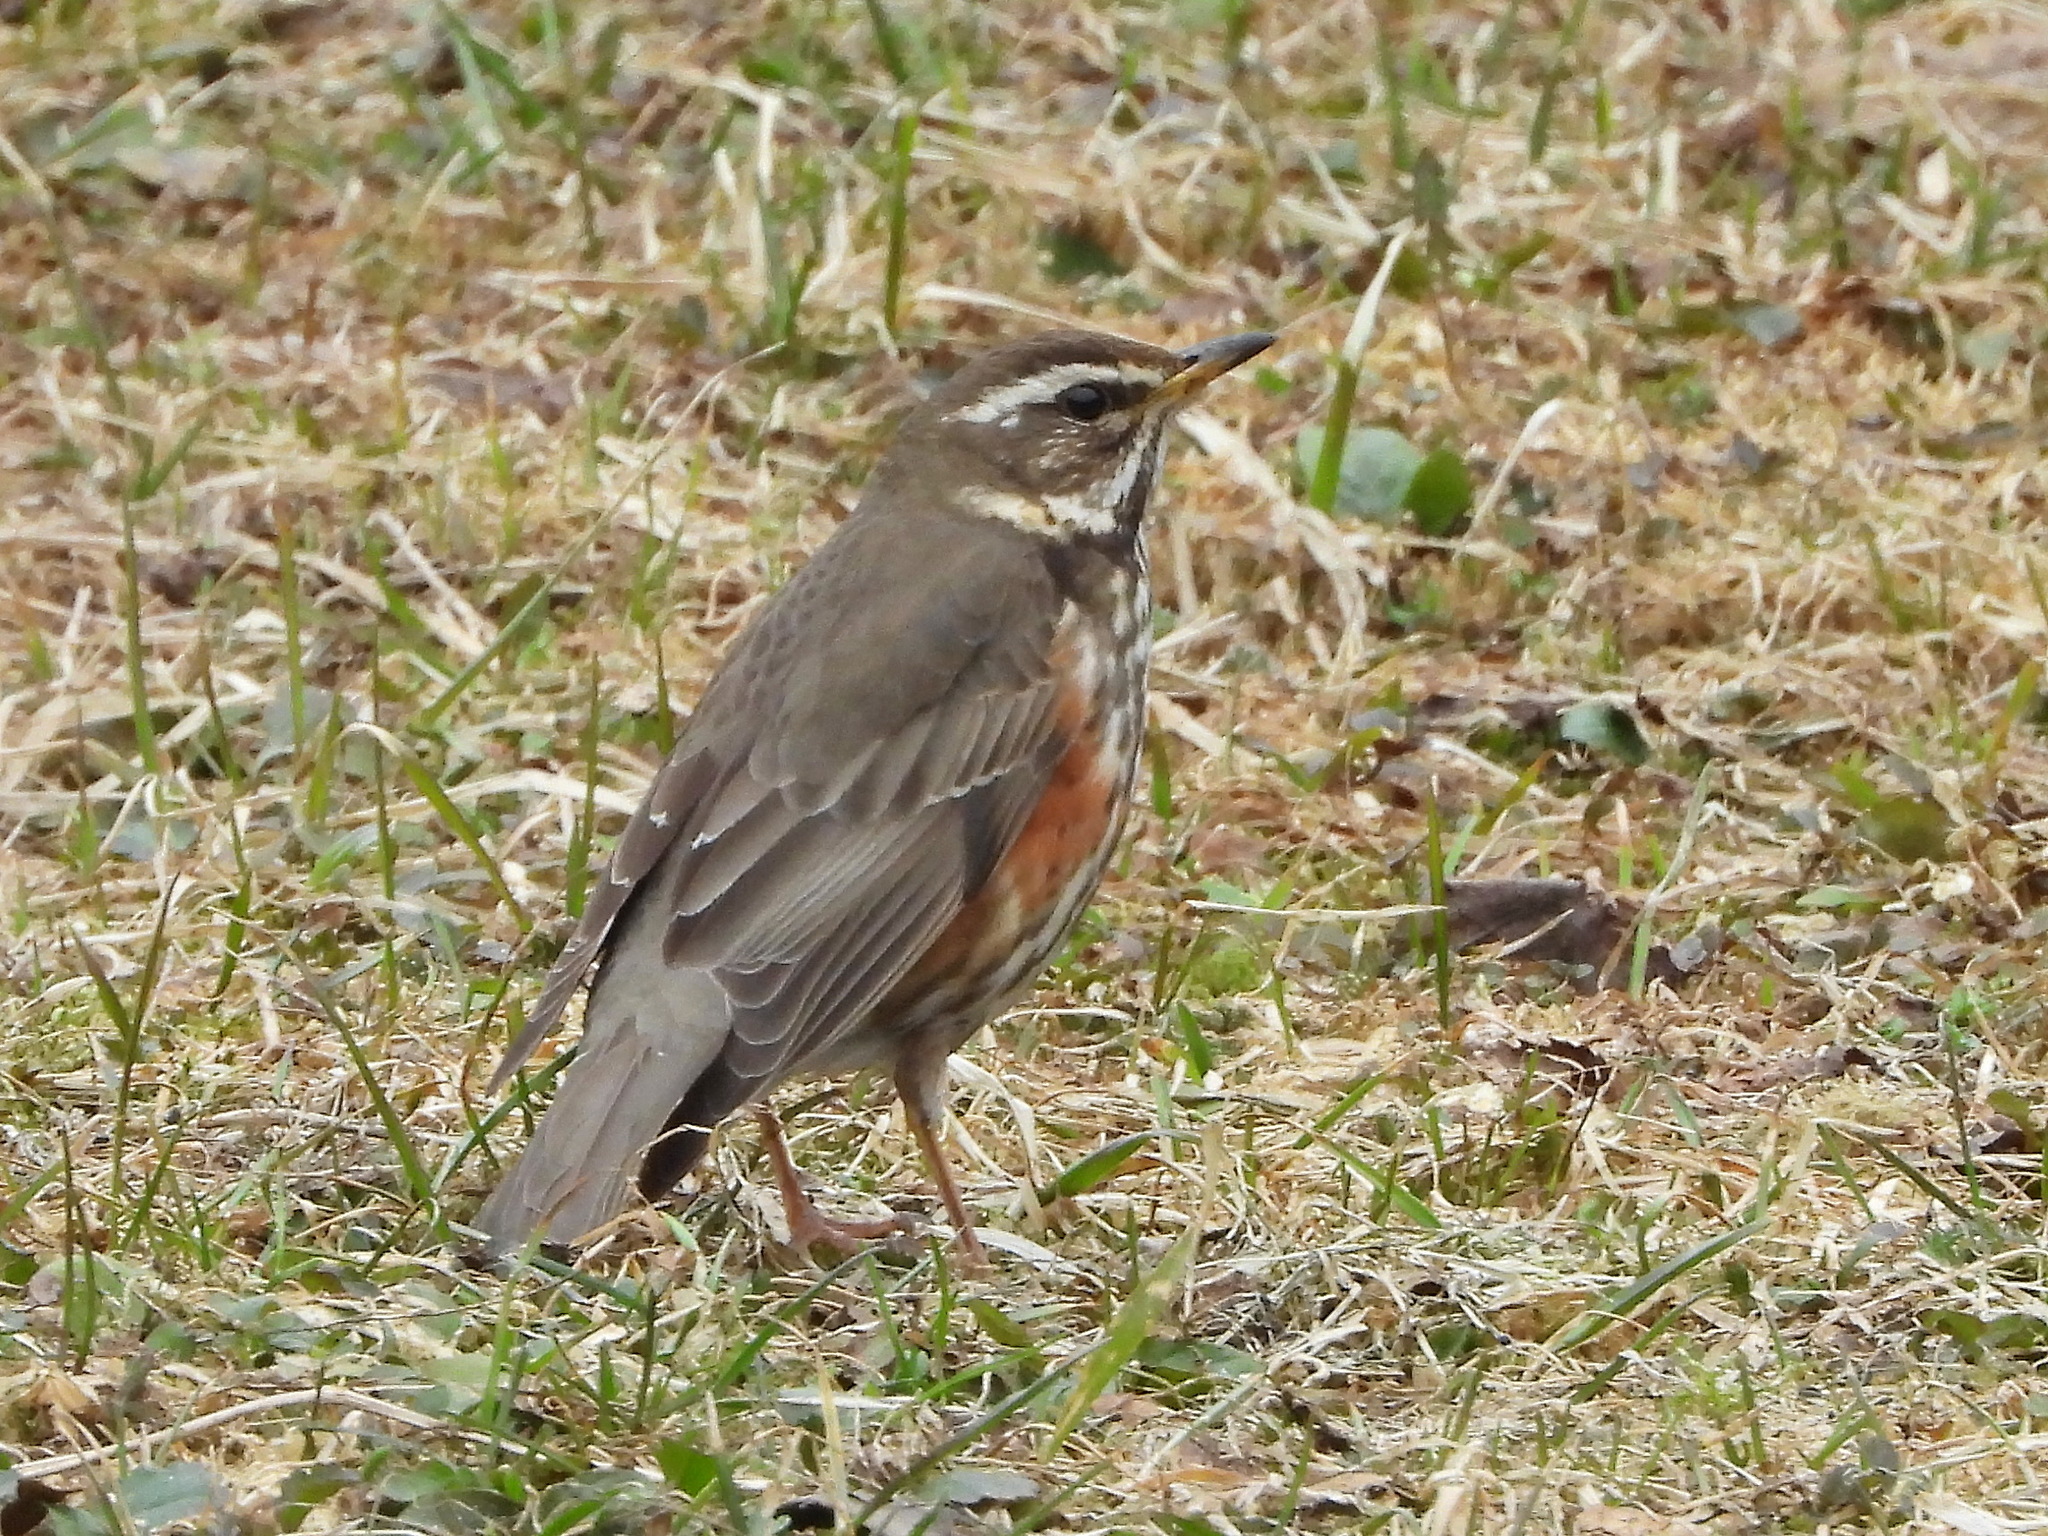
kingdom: Animalia
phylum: Chordata
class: Aves
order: Passeriformes
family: Turdidae
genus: Turdus
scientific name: Turdus iliacus
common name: Redwing
